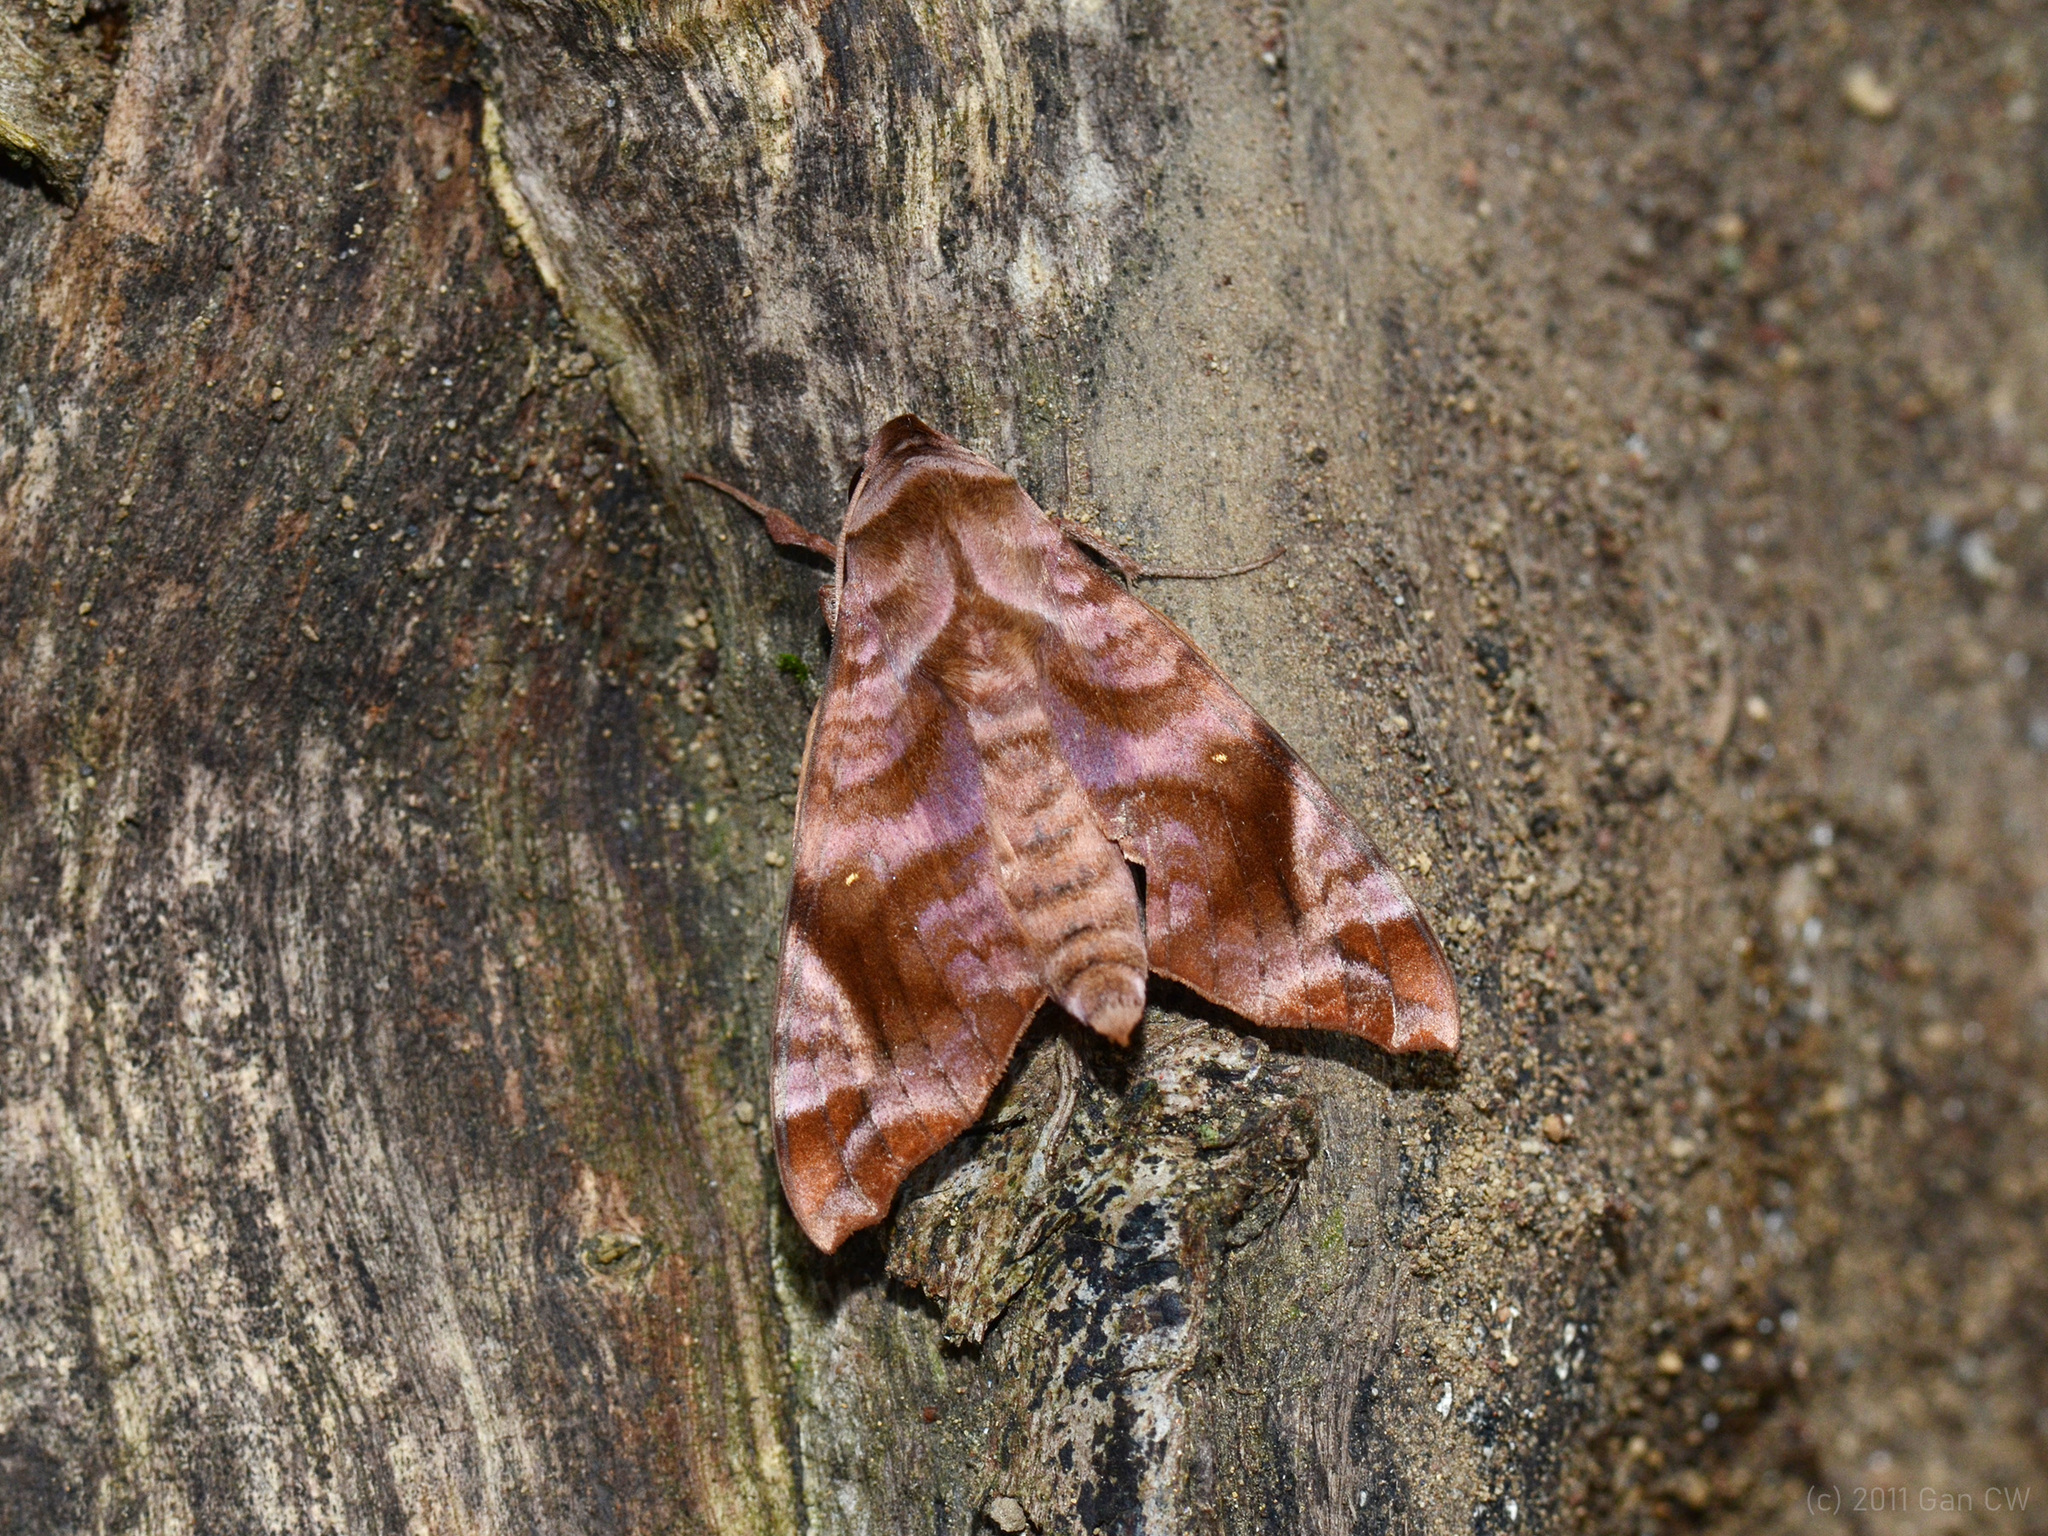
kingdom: Animalia
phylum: Arthropoda
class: Insecta
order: Lepidoptera
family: Sphingidae
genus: Acosmeryx
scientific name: Acosmeryx anceus
